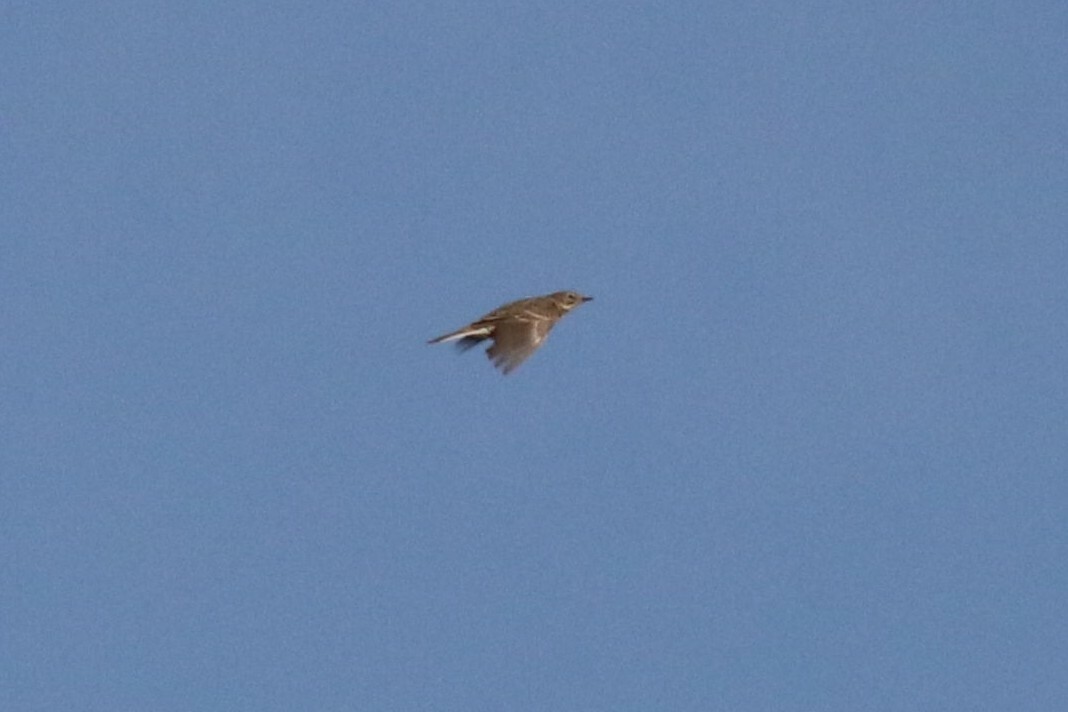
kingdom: Animalia
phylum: Chordata
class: Aves
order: Passeriformes
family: Alaudidae
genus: Alauda
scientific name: Alauda arvensis
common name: Eurasian skylark
